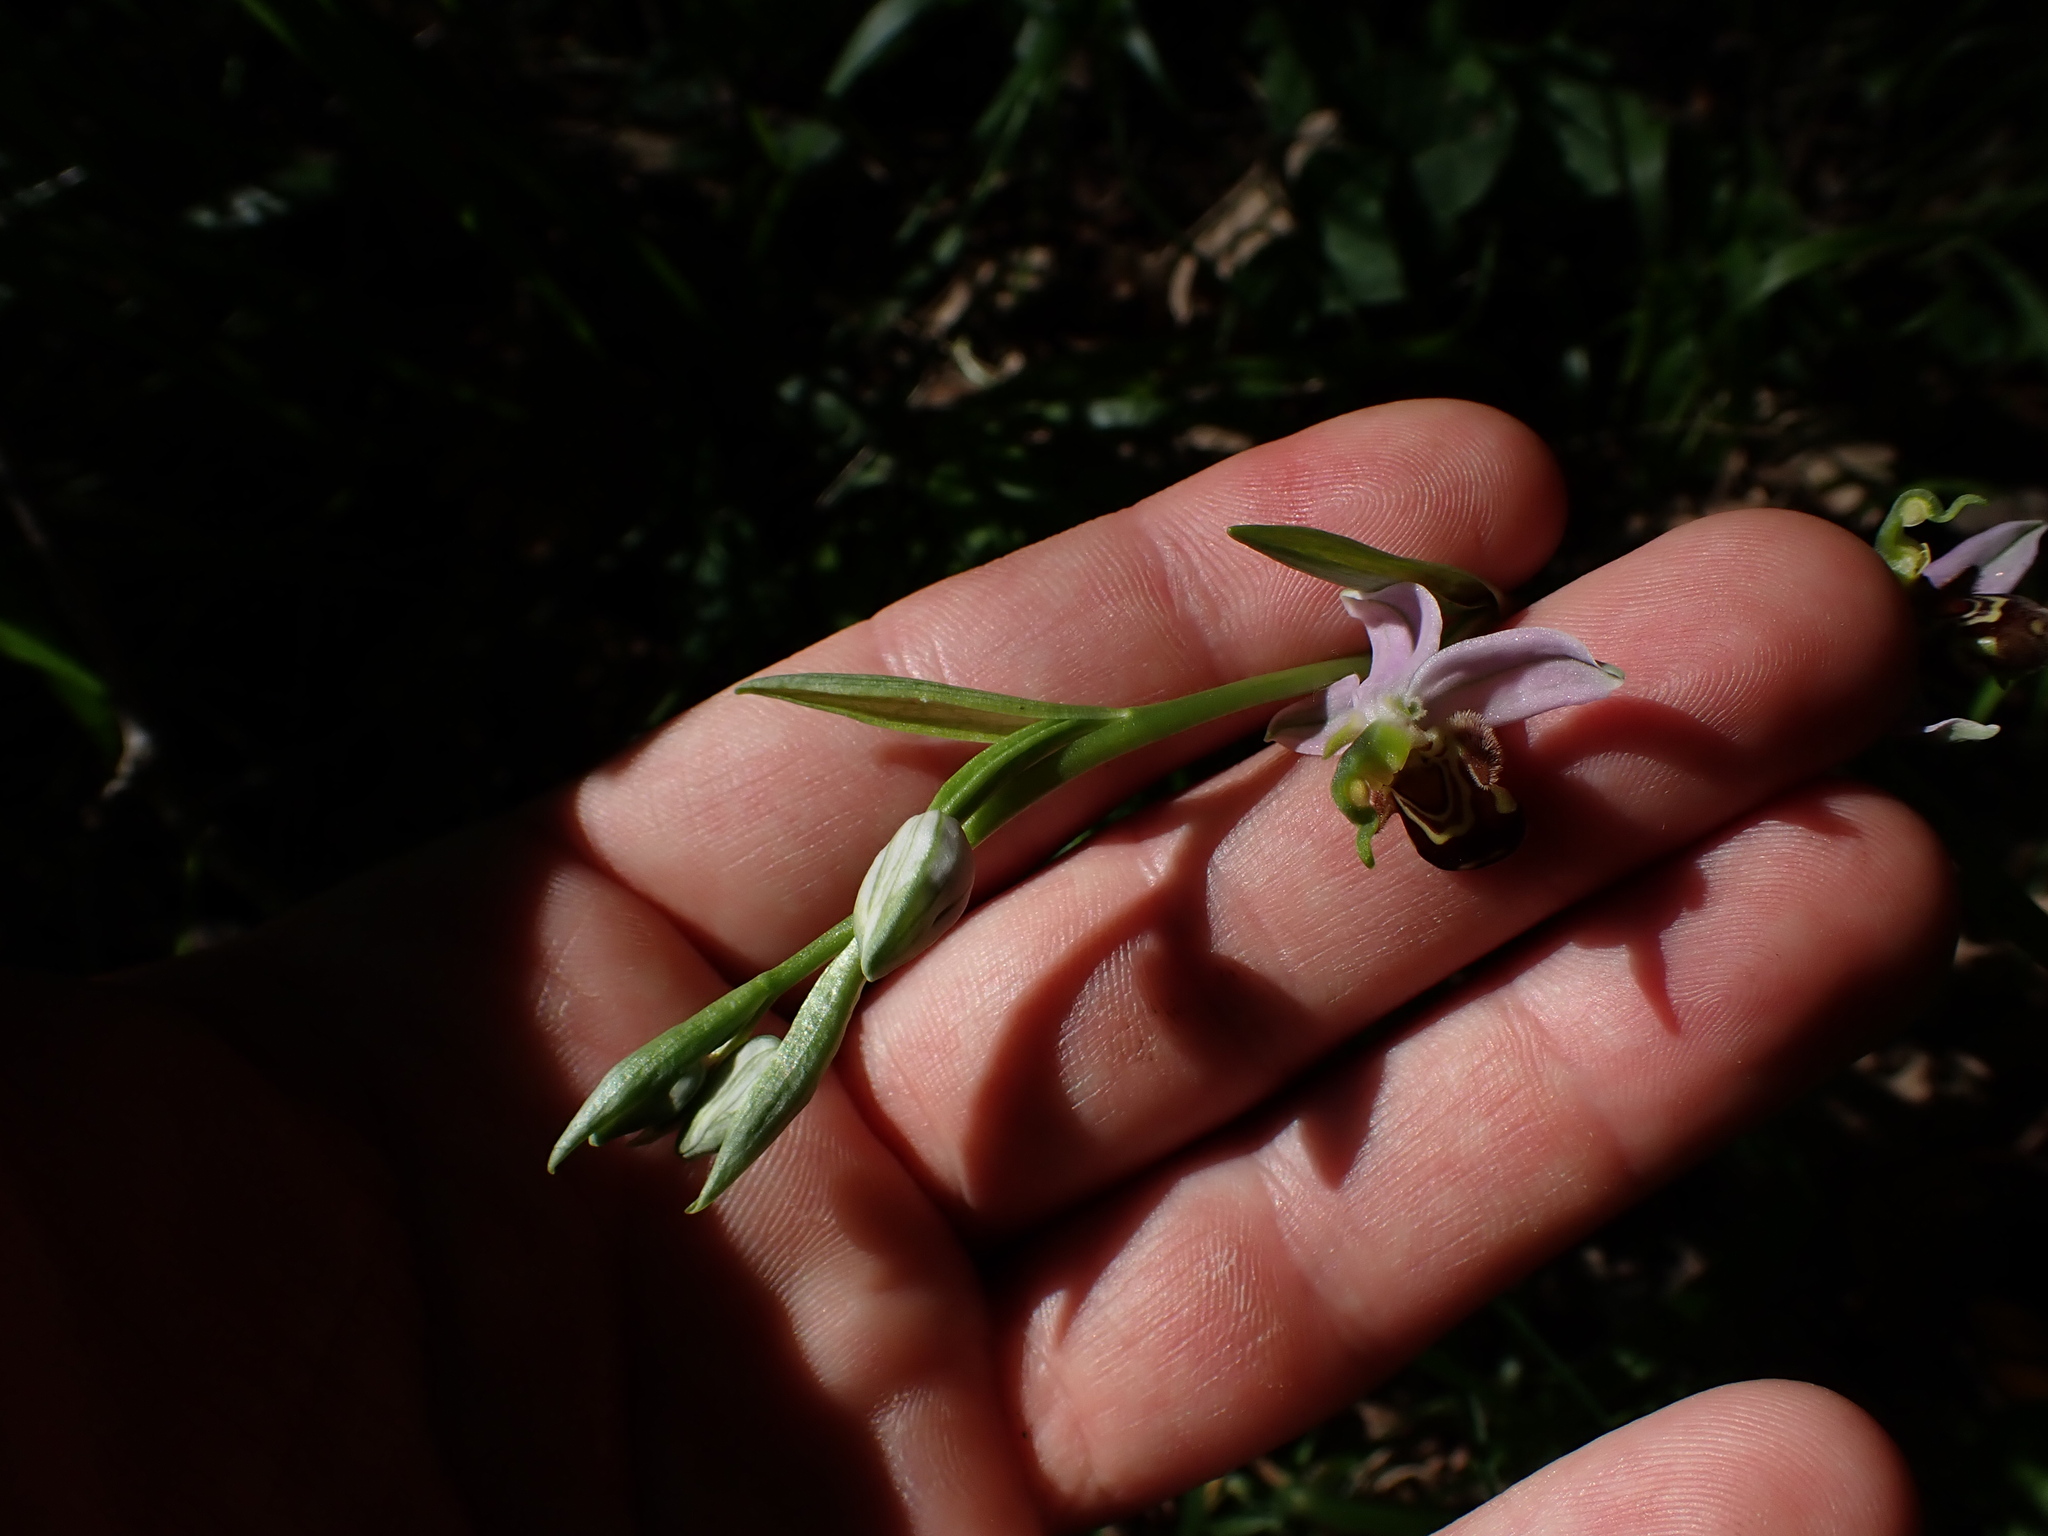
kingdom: Plantae
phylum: Tracheophyta
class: Liliopsida
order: Asparagales
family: Orchidaceae
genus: Ophrys
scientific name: Ophrys apifera
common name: Bee orchid
